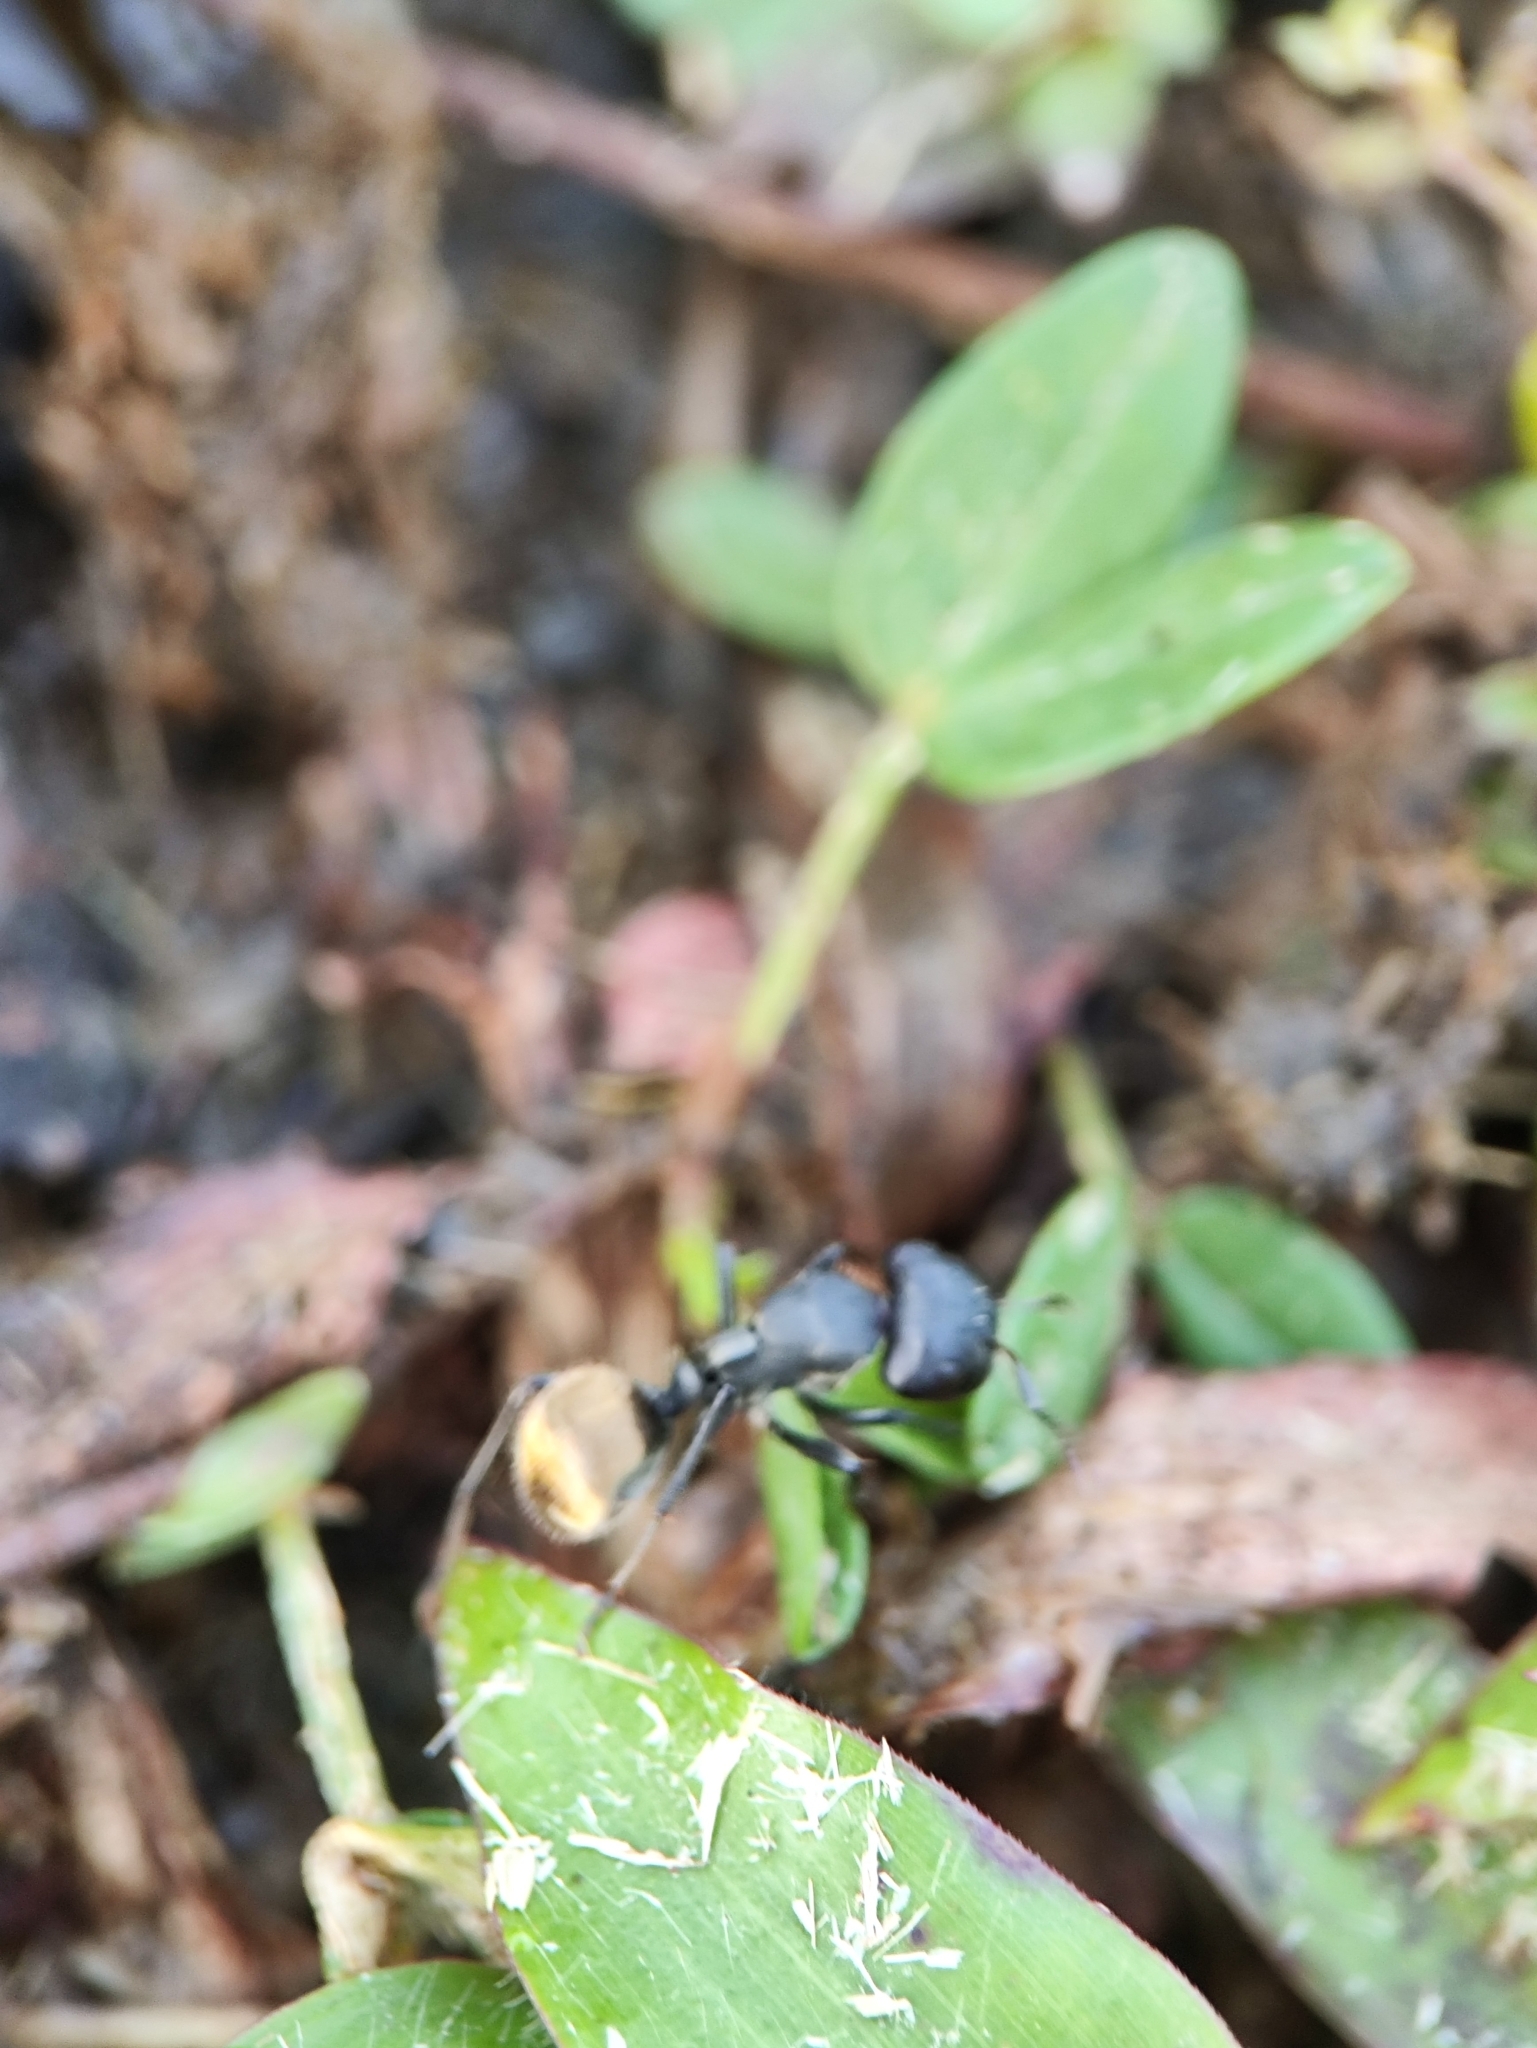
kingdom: Animalia
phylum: Arthropoda
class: Insecta
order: Hymenoptera
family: Formicidae
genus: Camponotus
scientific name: Camponotus sericeus
